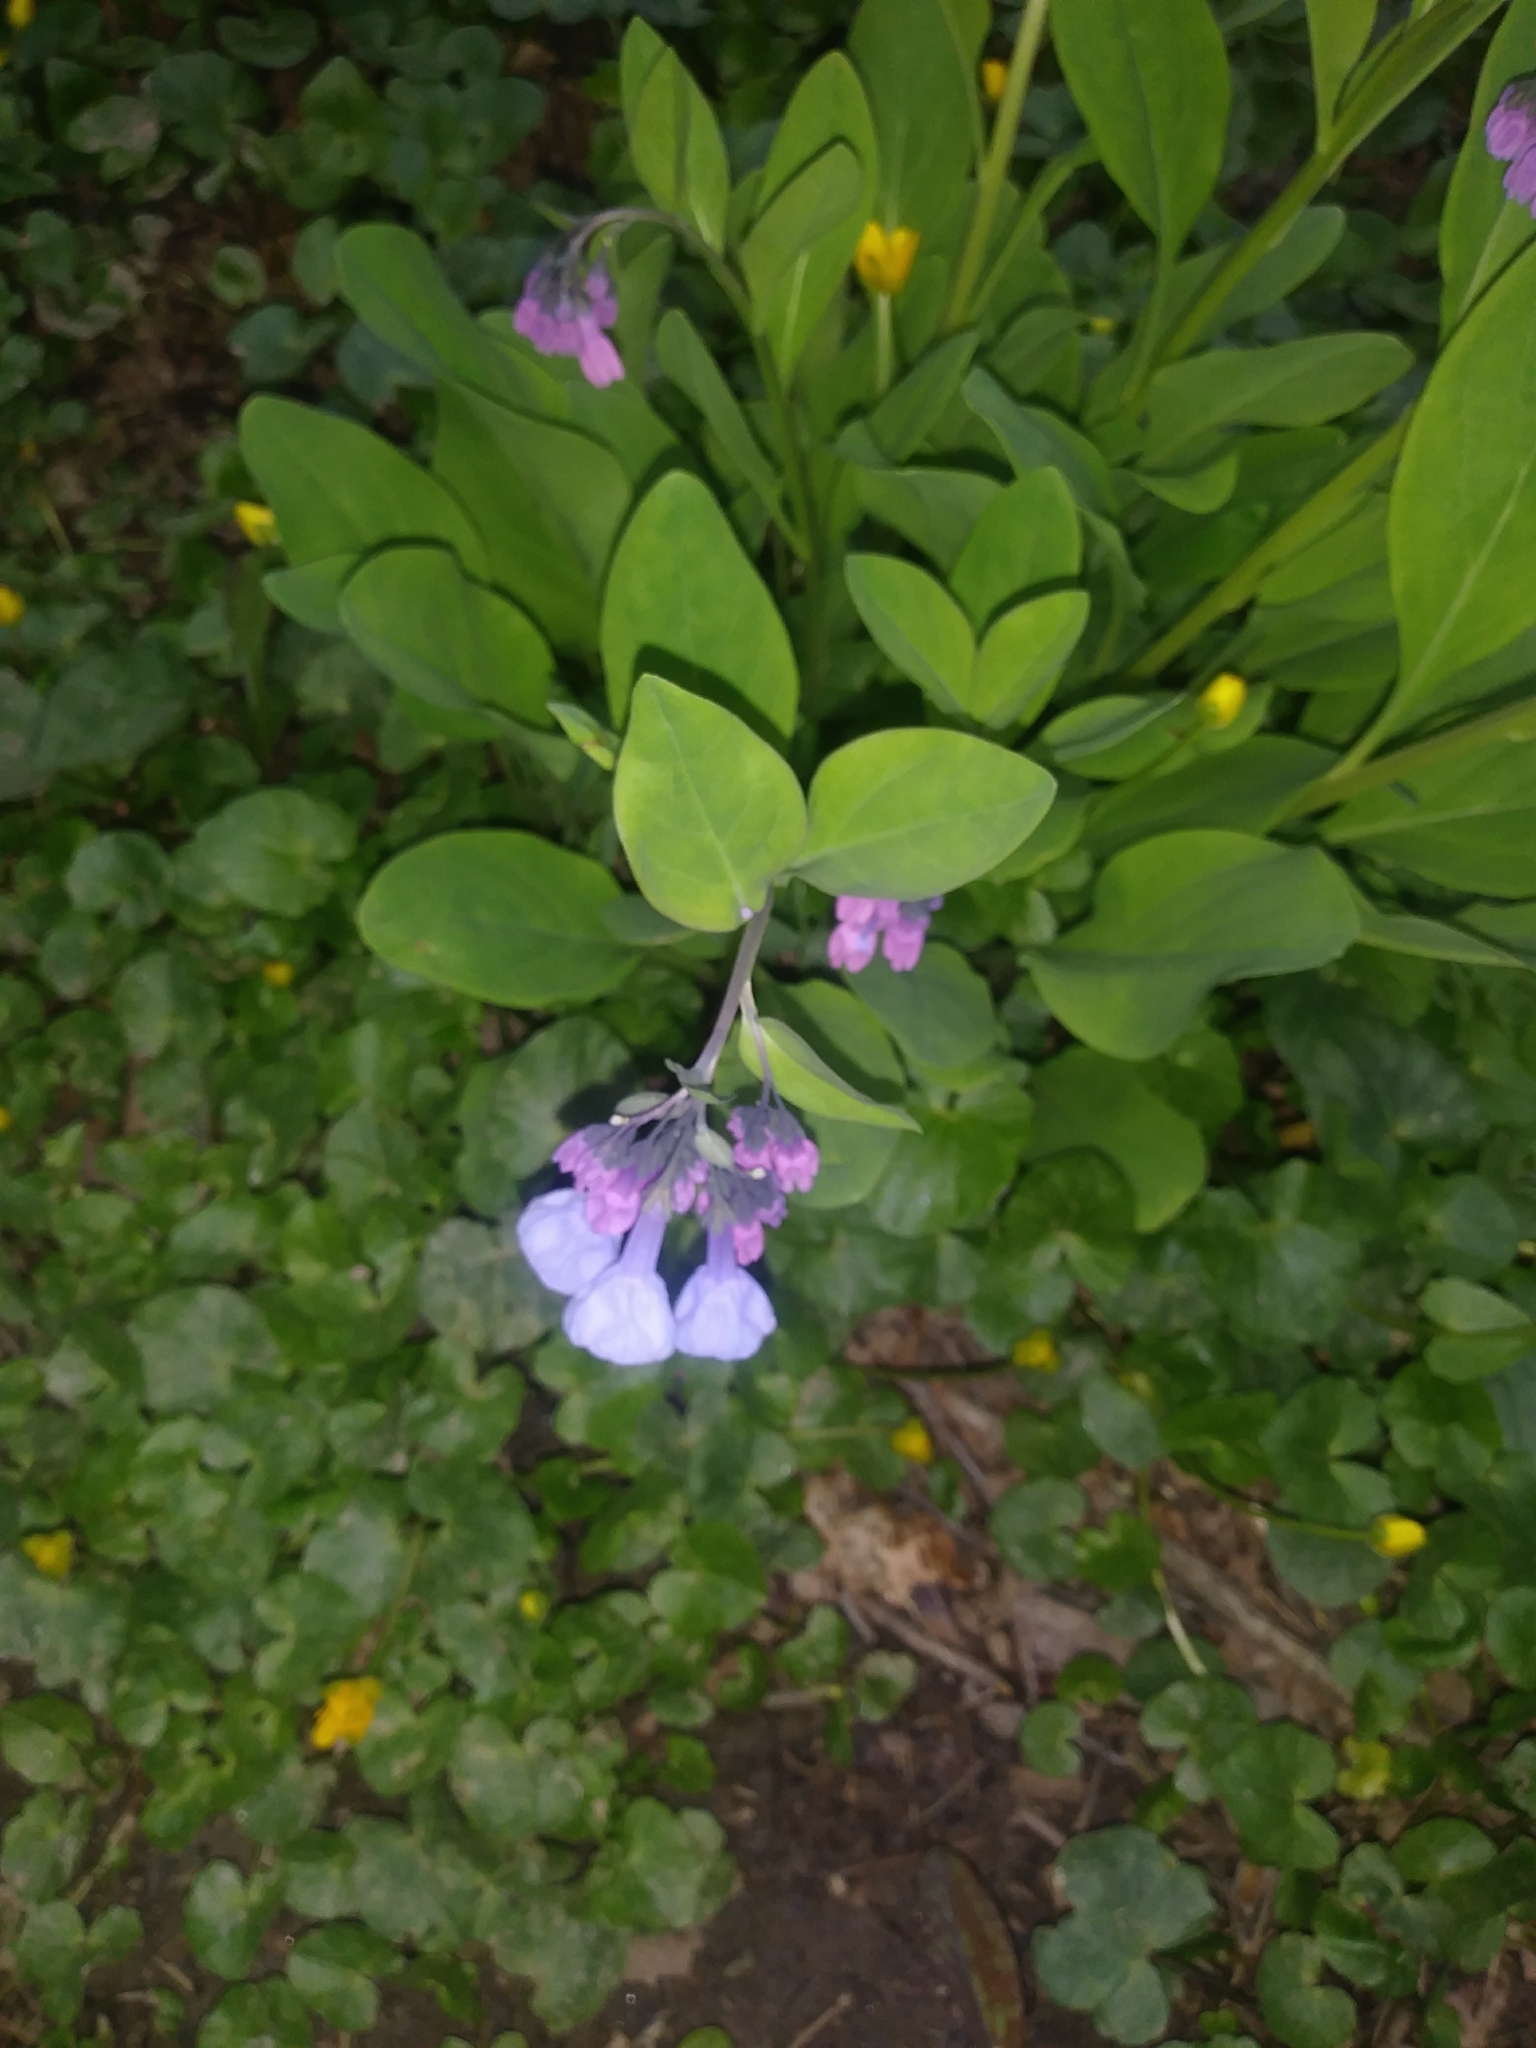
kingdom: Plantae
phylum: Tracheophyta
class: Magnoliopsida
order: Boraginales
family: Boraginaceae
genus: Mertensia
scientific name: Mertensia virginica
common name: Virginia bluebells
